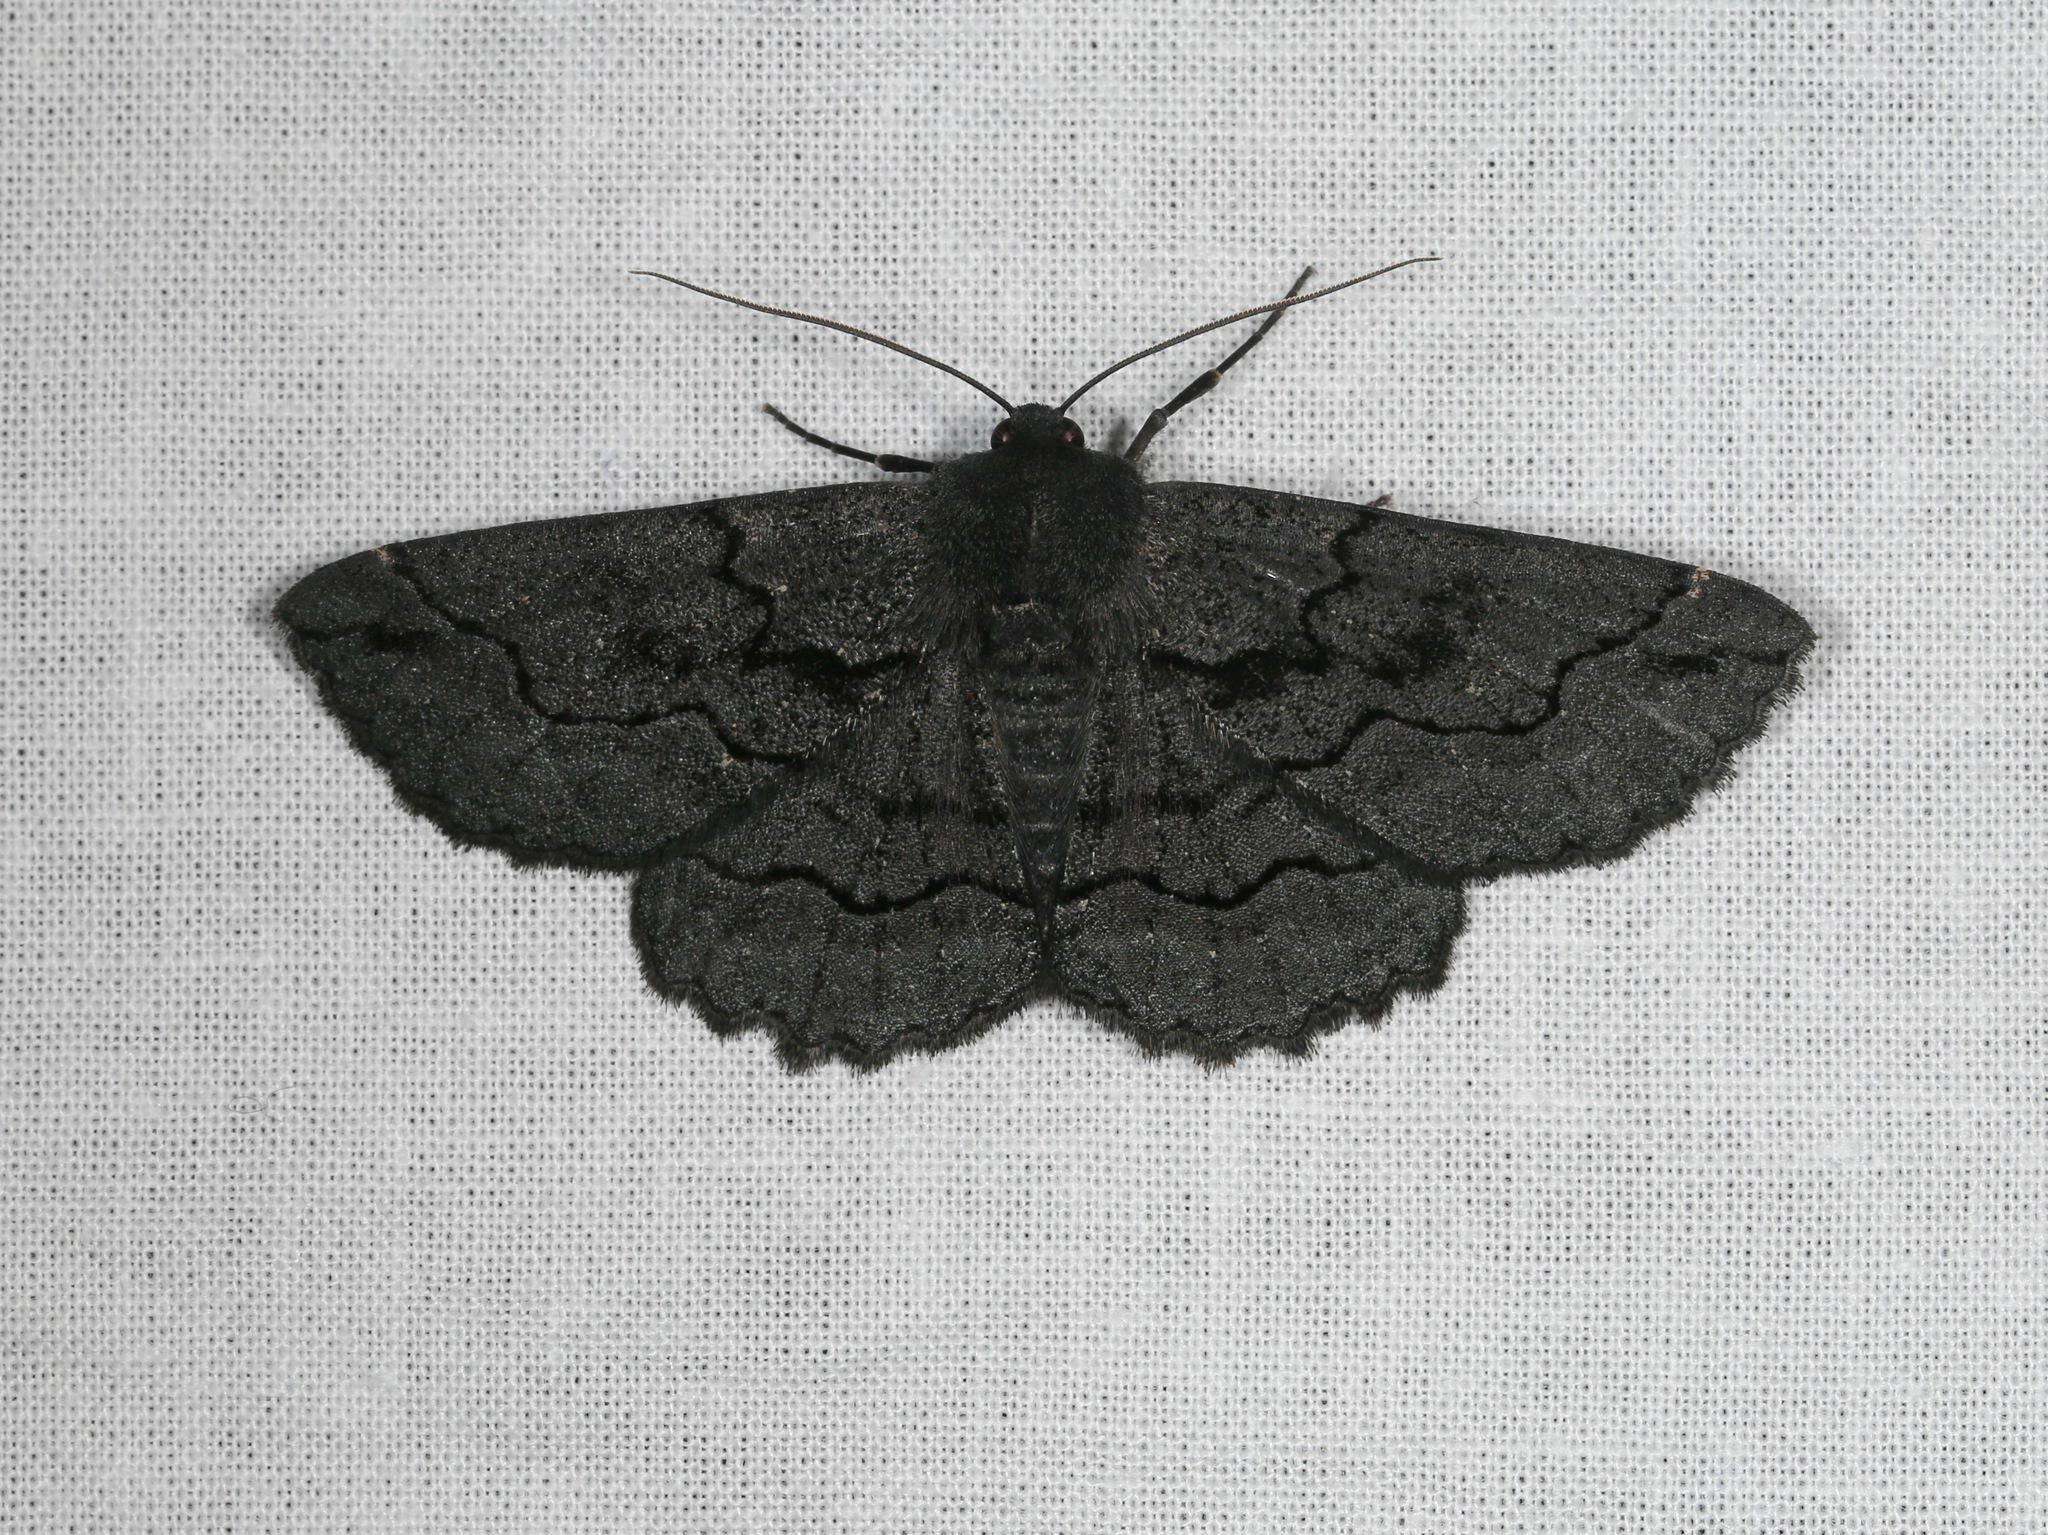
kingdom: Animalia
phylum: Arthropoda
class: Insecta
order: Lepidoptera
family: Geometridae
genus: Melanodes
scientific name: Melanodes anthracitaria
